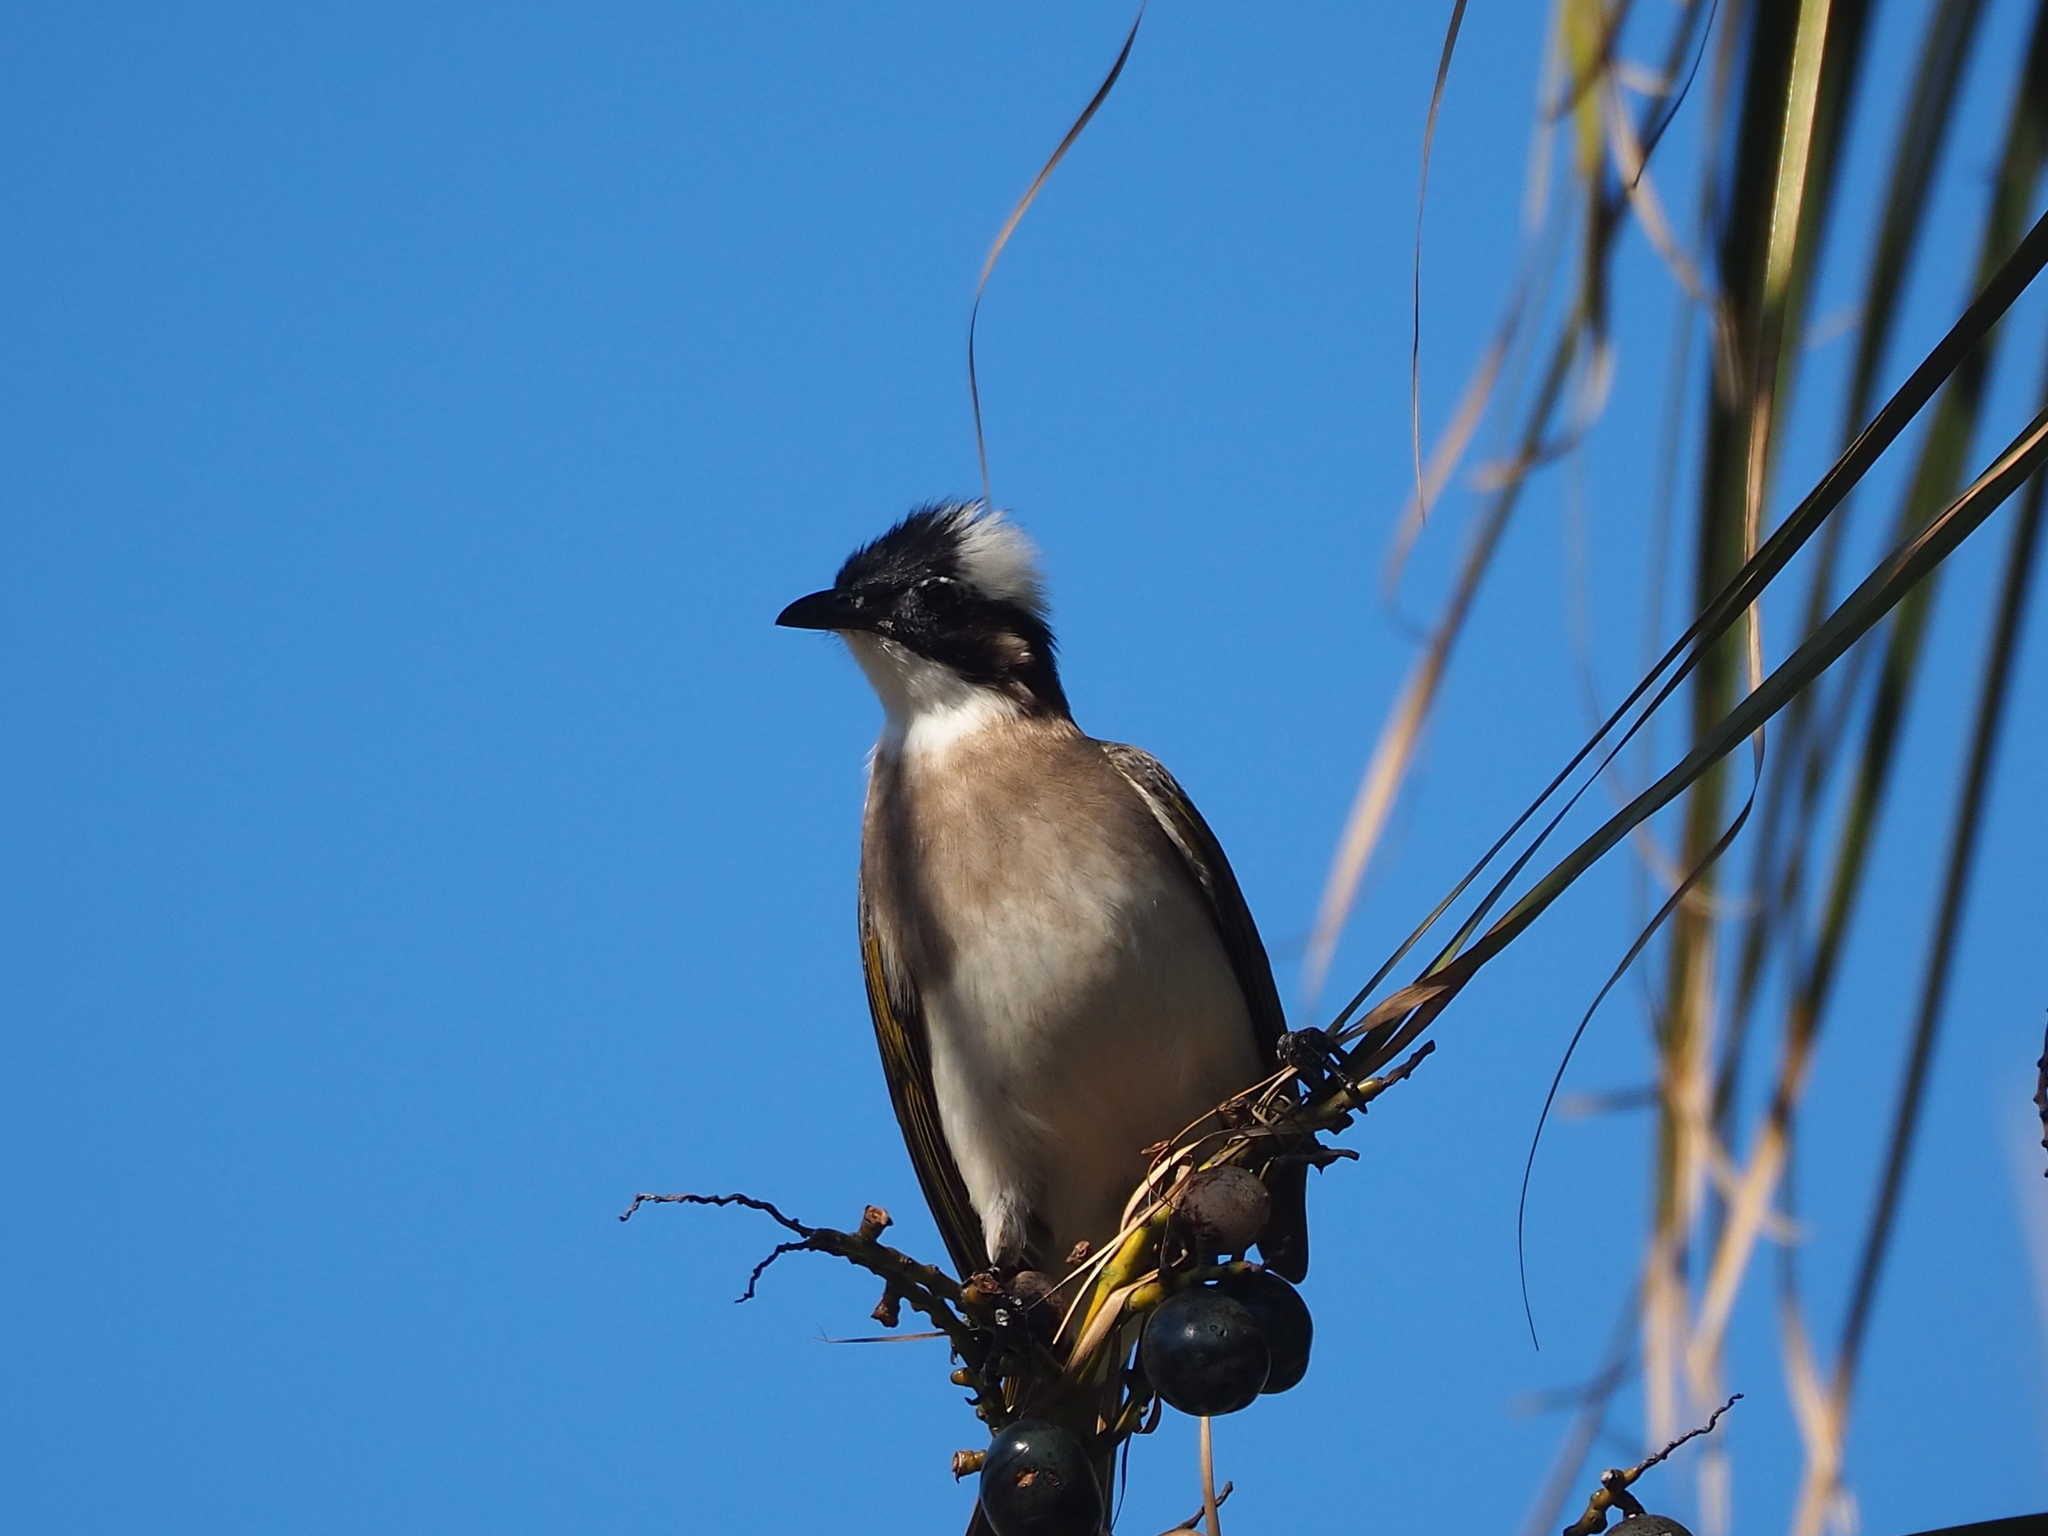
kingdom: Animalia
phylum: Chordata
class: Aves
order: Passeriformes
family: Pycnonotidae
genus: Pycnonotus
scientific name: Pycnonotus sinensis
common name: Light-vented bulbul
